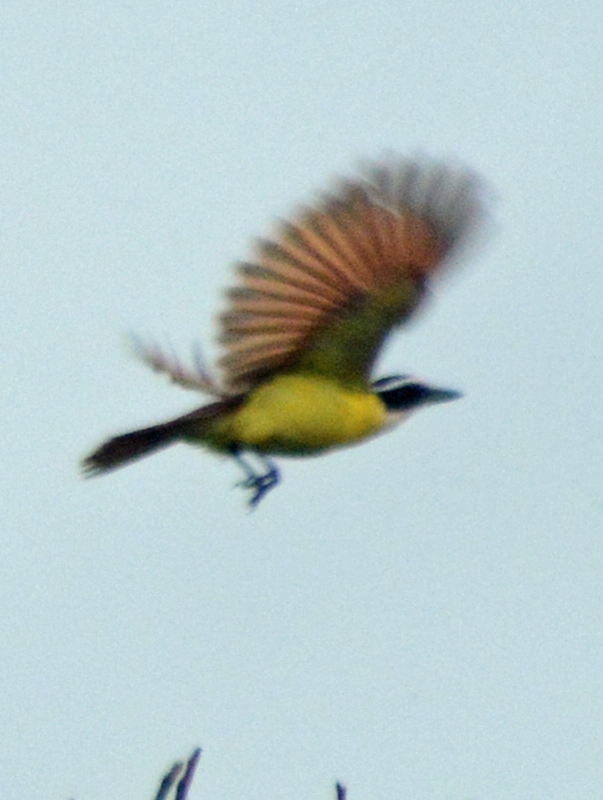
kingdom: Animalia
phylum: Chordata
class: Aves
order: Passeriformes
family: Tyrannidae
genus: Pitangus
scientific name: Pitangus sulphuratus
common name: Great kiskadee
